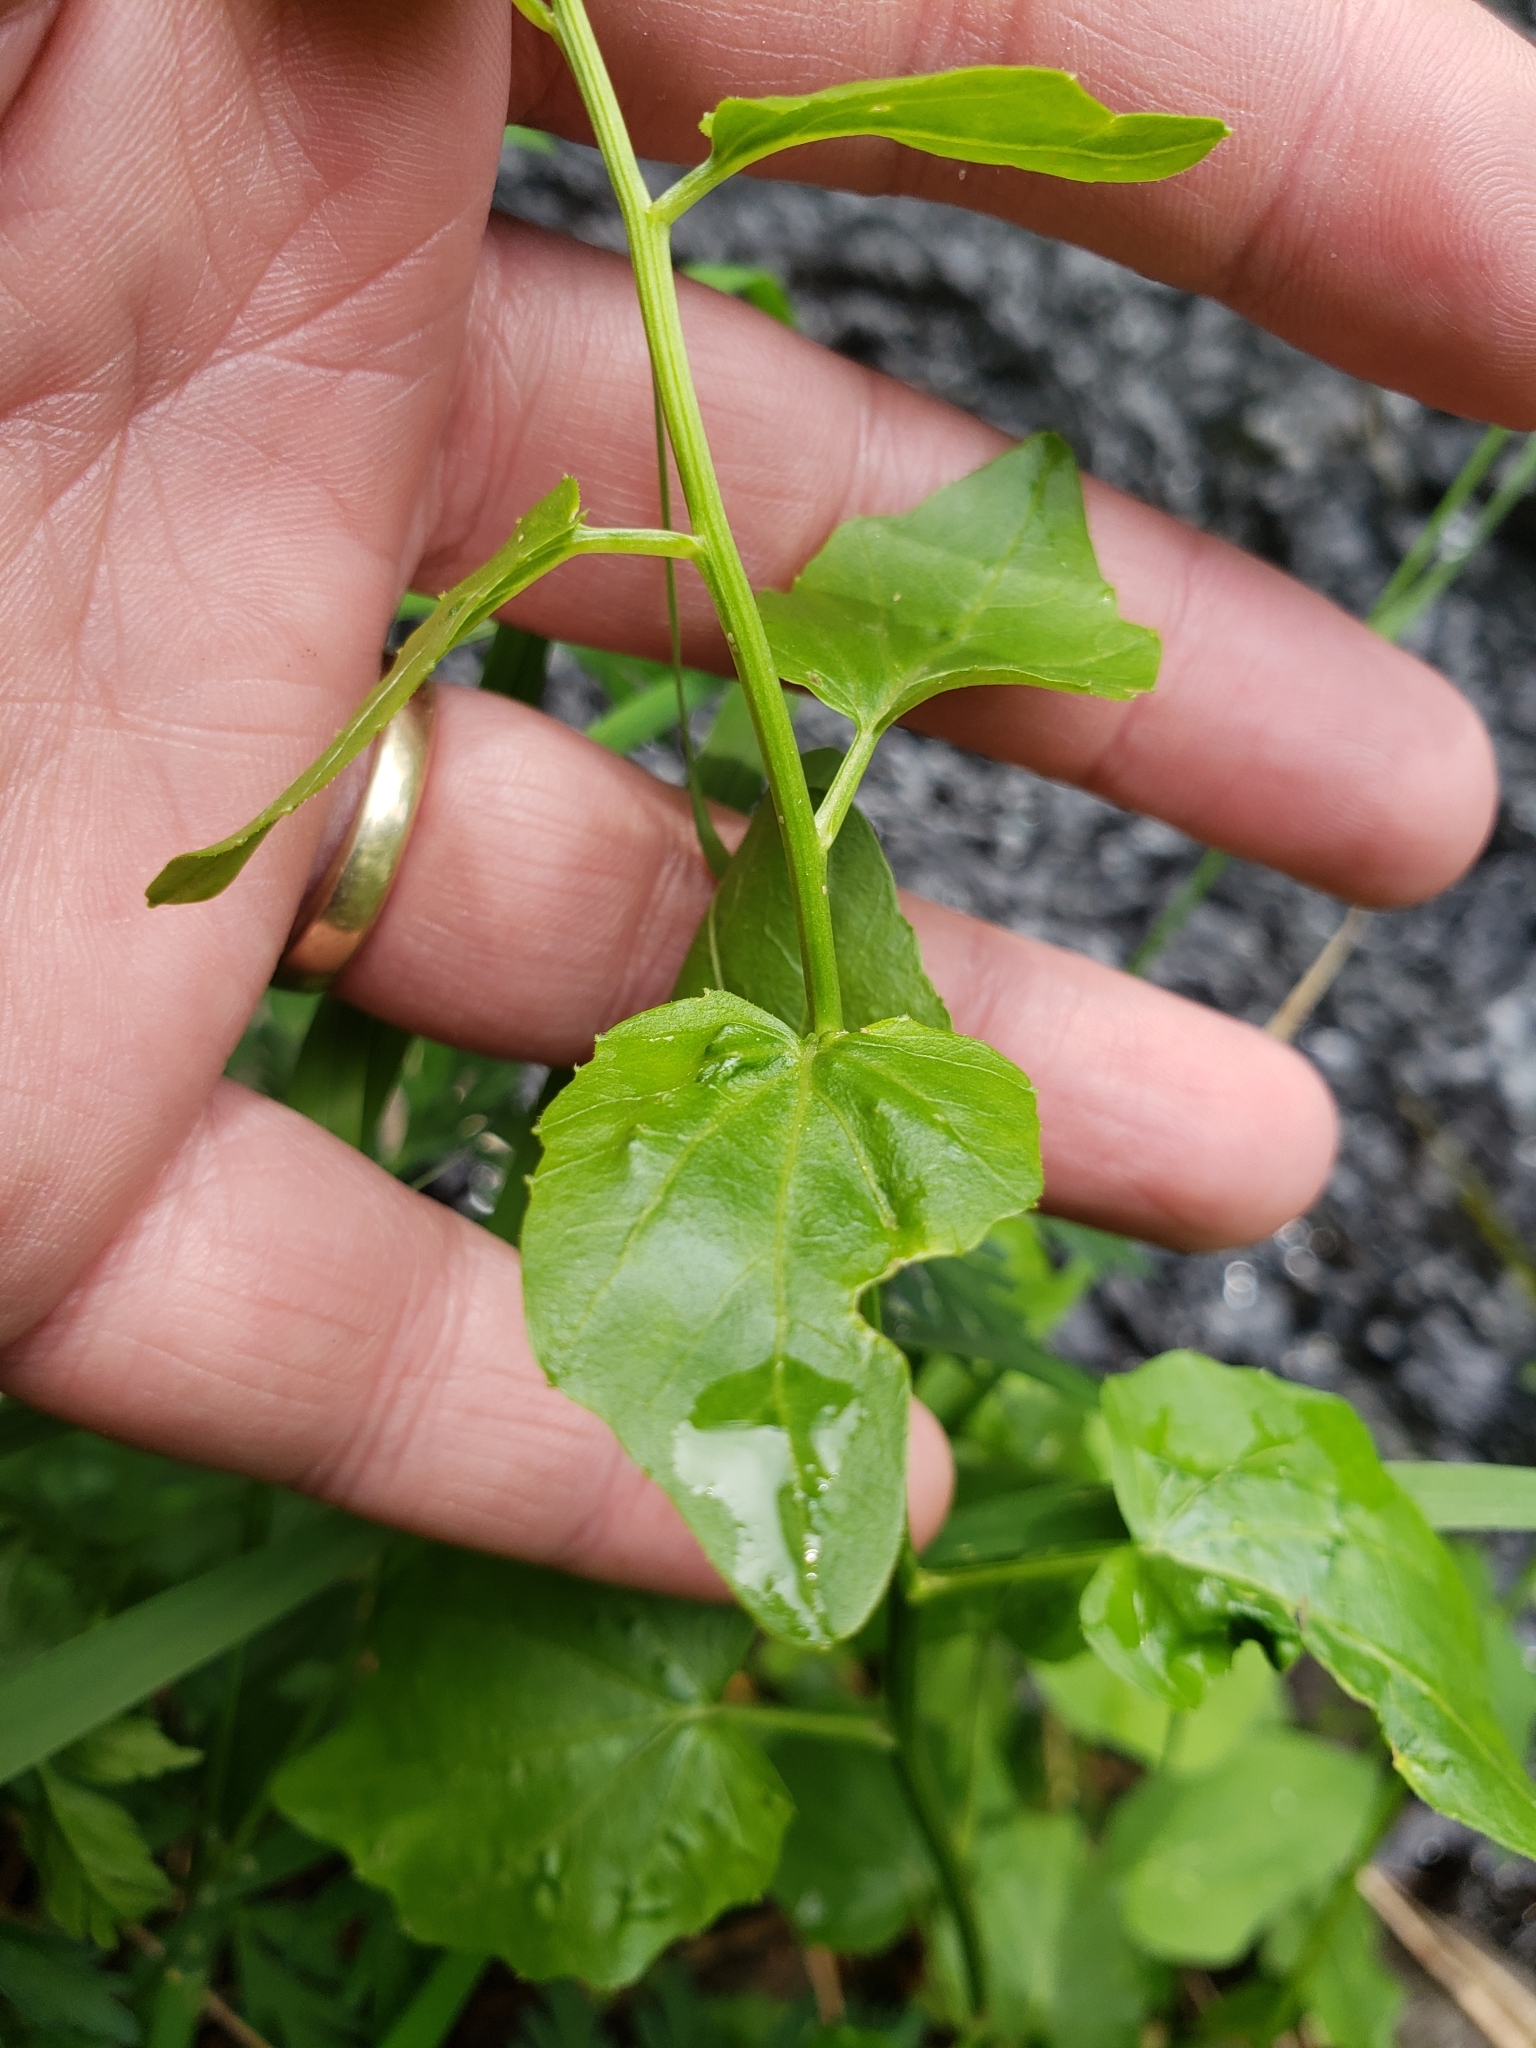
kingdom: Plantae
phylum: Tracheophyta
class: Magnoliopsida
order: Brassicales
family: Brassicaceae
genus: Cardamine
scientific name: Cardamine cordifolia
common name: Heart-leaf bittercress
